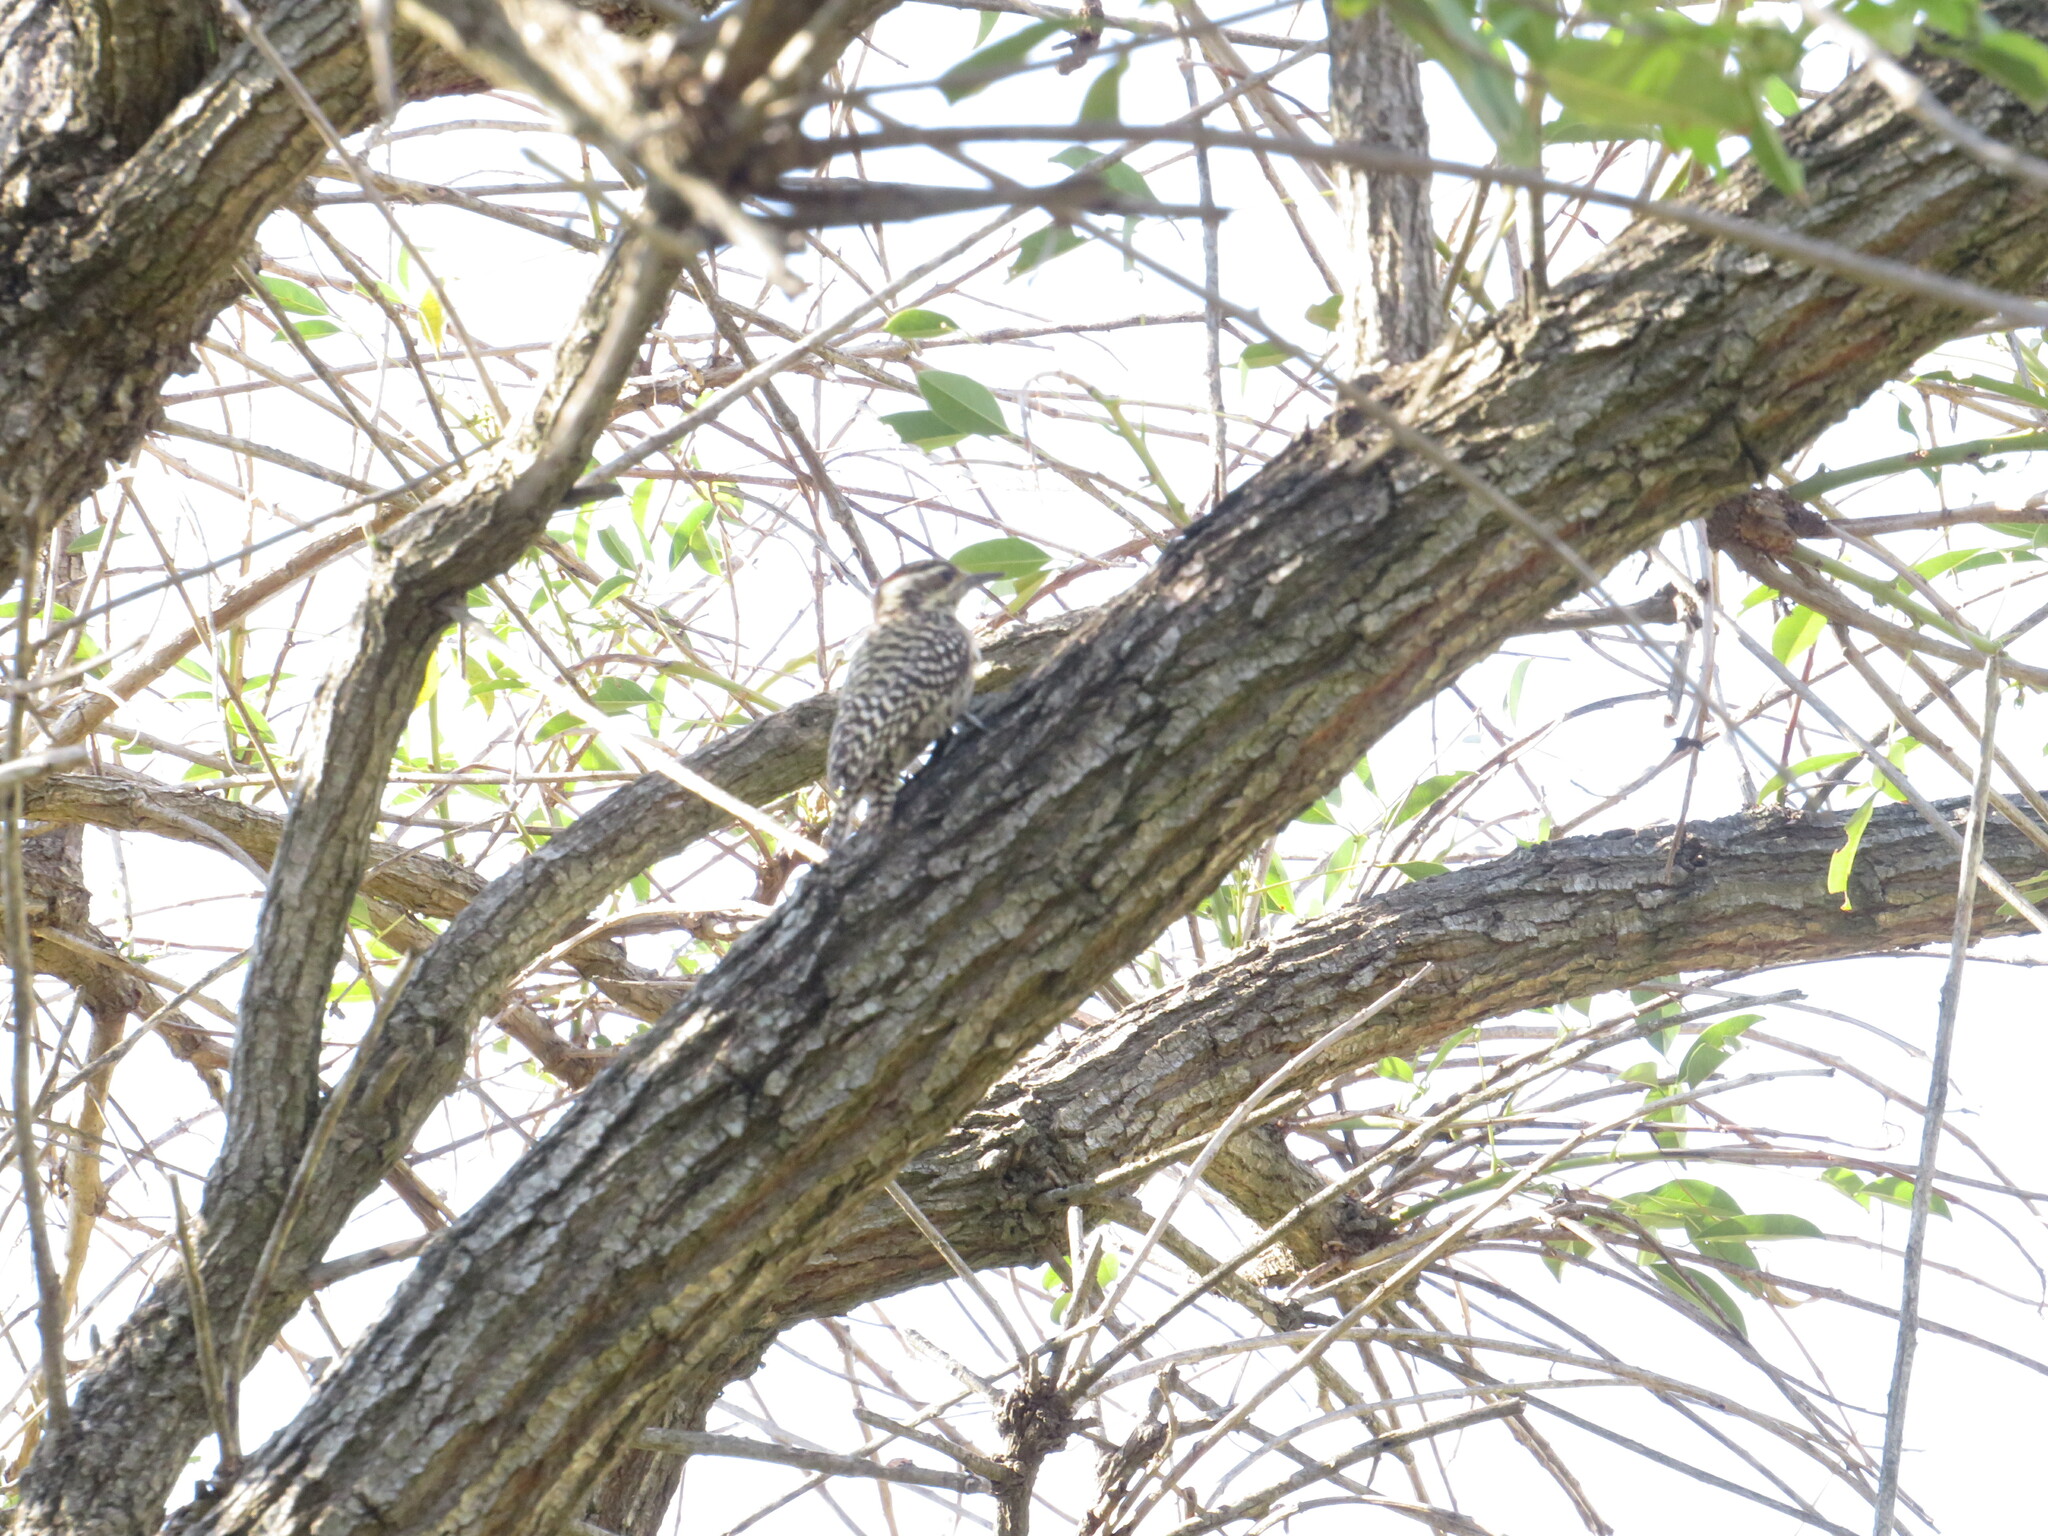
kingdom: Animalia
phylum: Chordata
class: Aves
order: Piciformes
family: Picidae
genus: Veniliornis
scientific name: Veniliornis mixtus
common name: Checkered woodpecker
